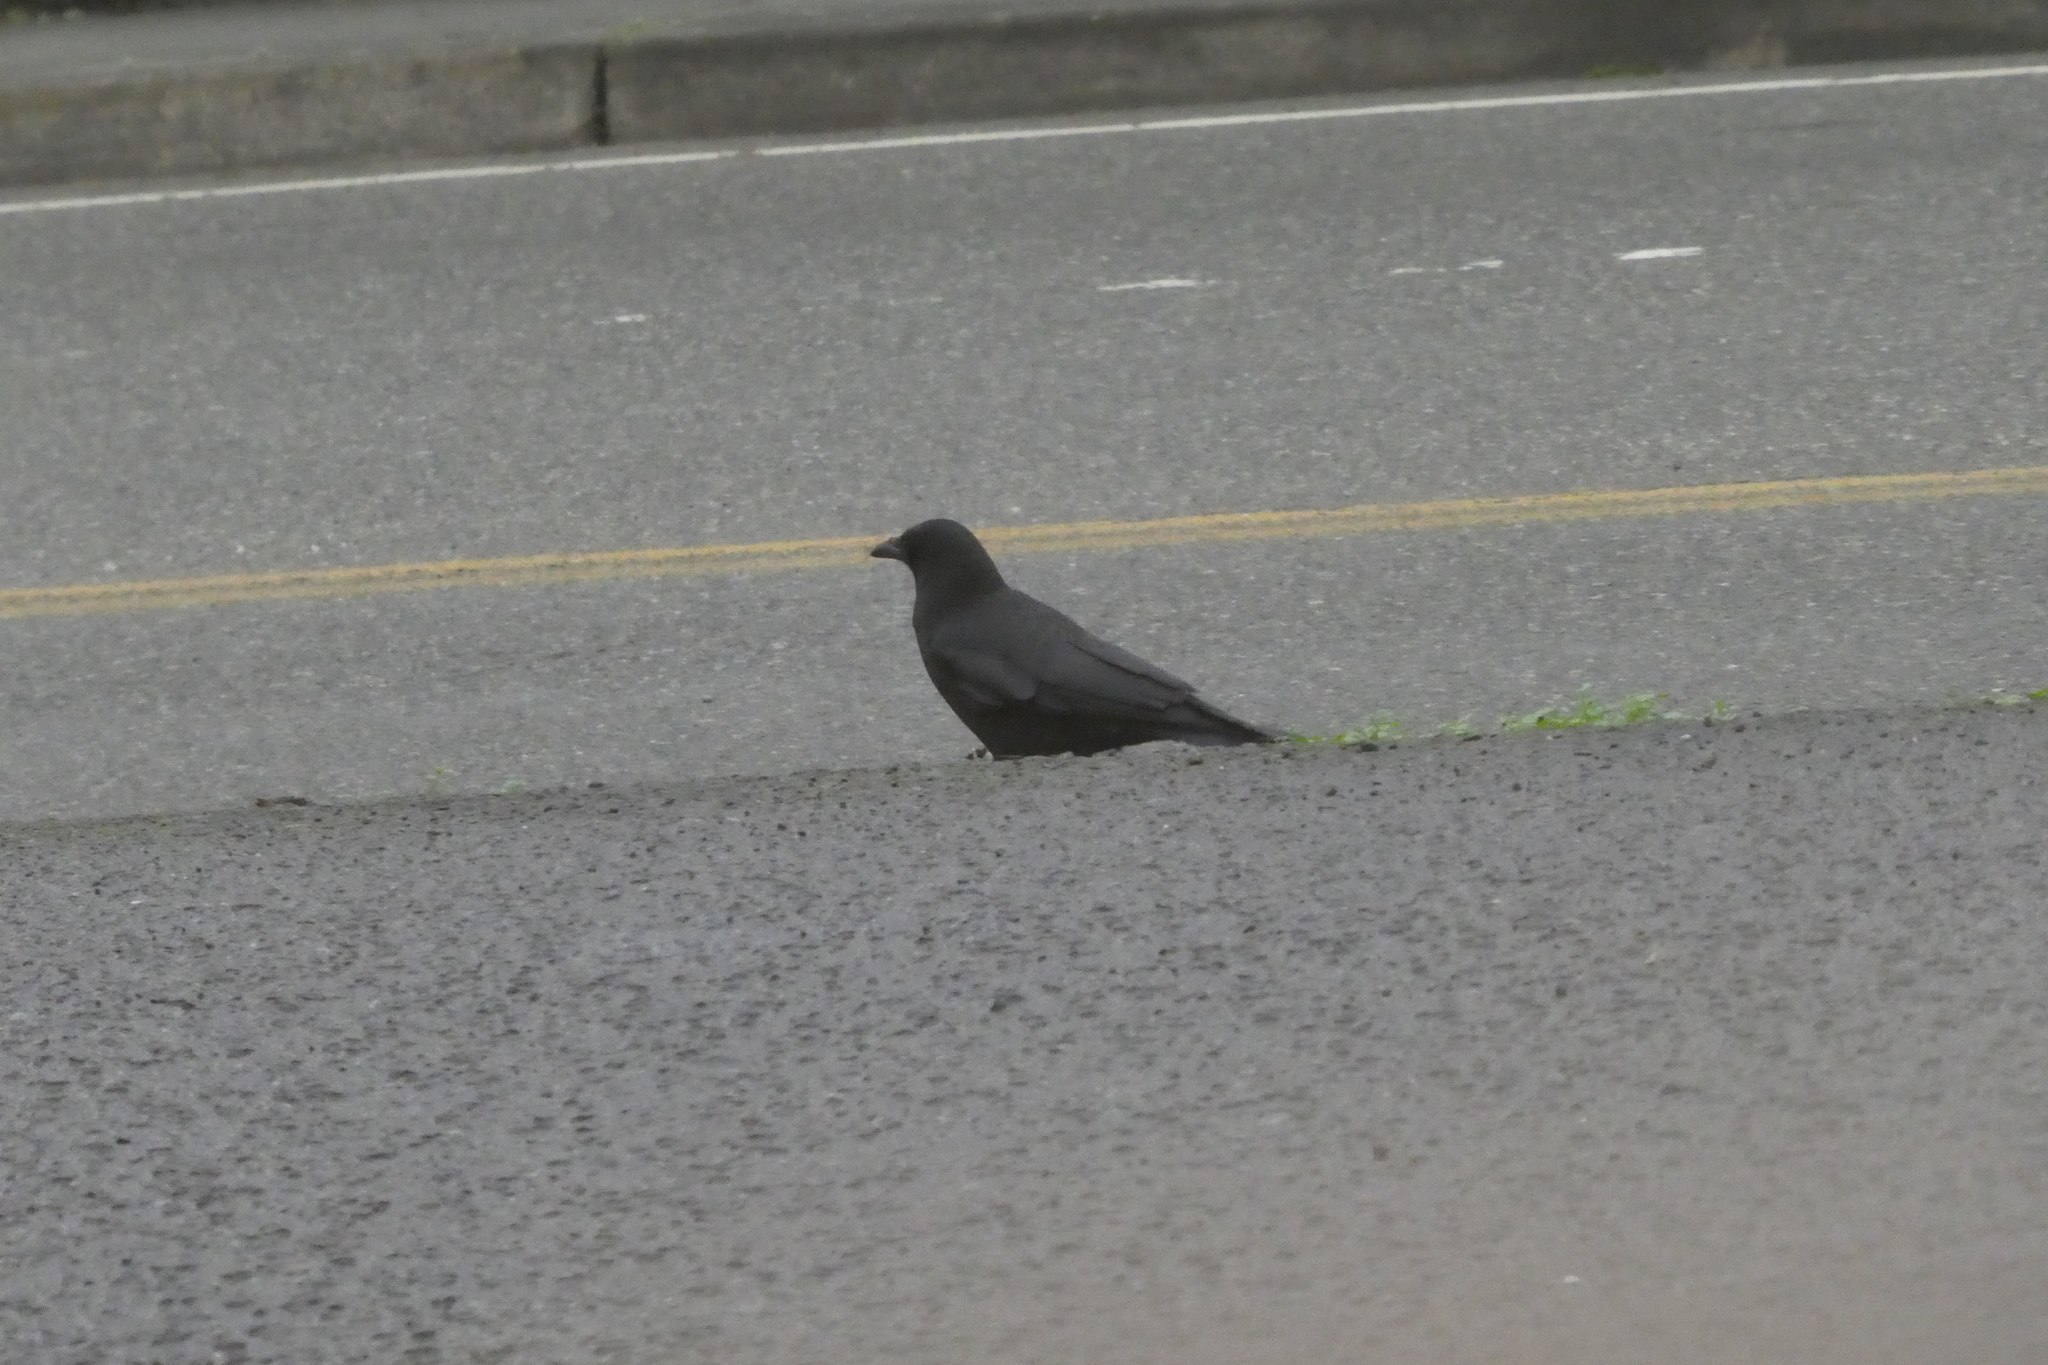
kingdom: Animalia
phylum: Chordata
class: Aves
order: Passeriformes
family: Corvidae
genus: Corvus
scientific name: Corvus brachyrhynchos
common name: American crow
